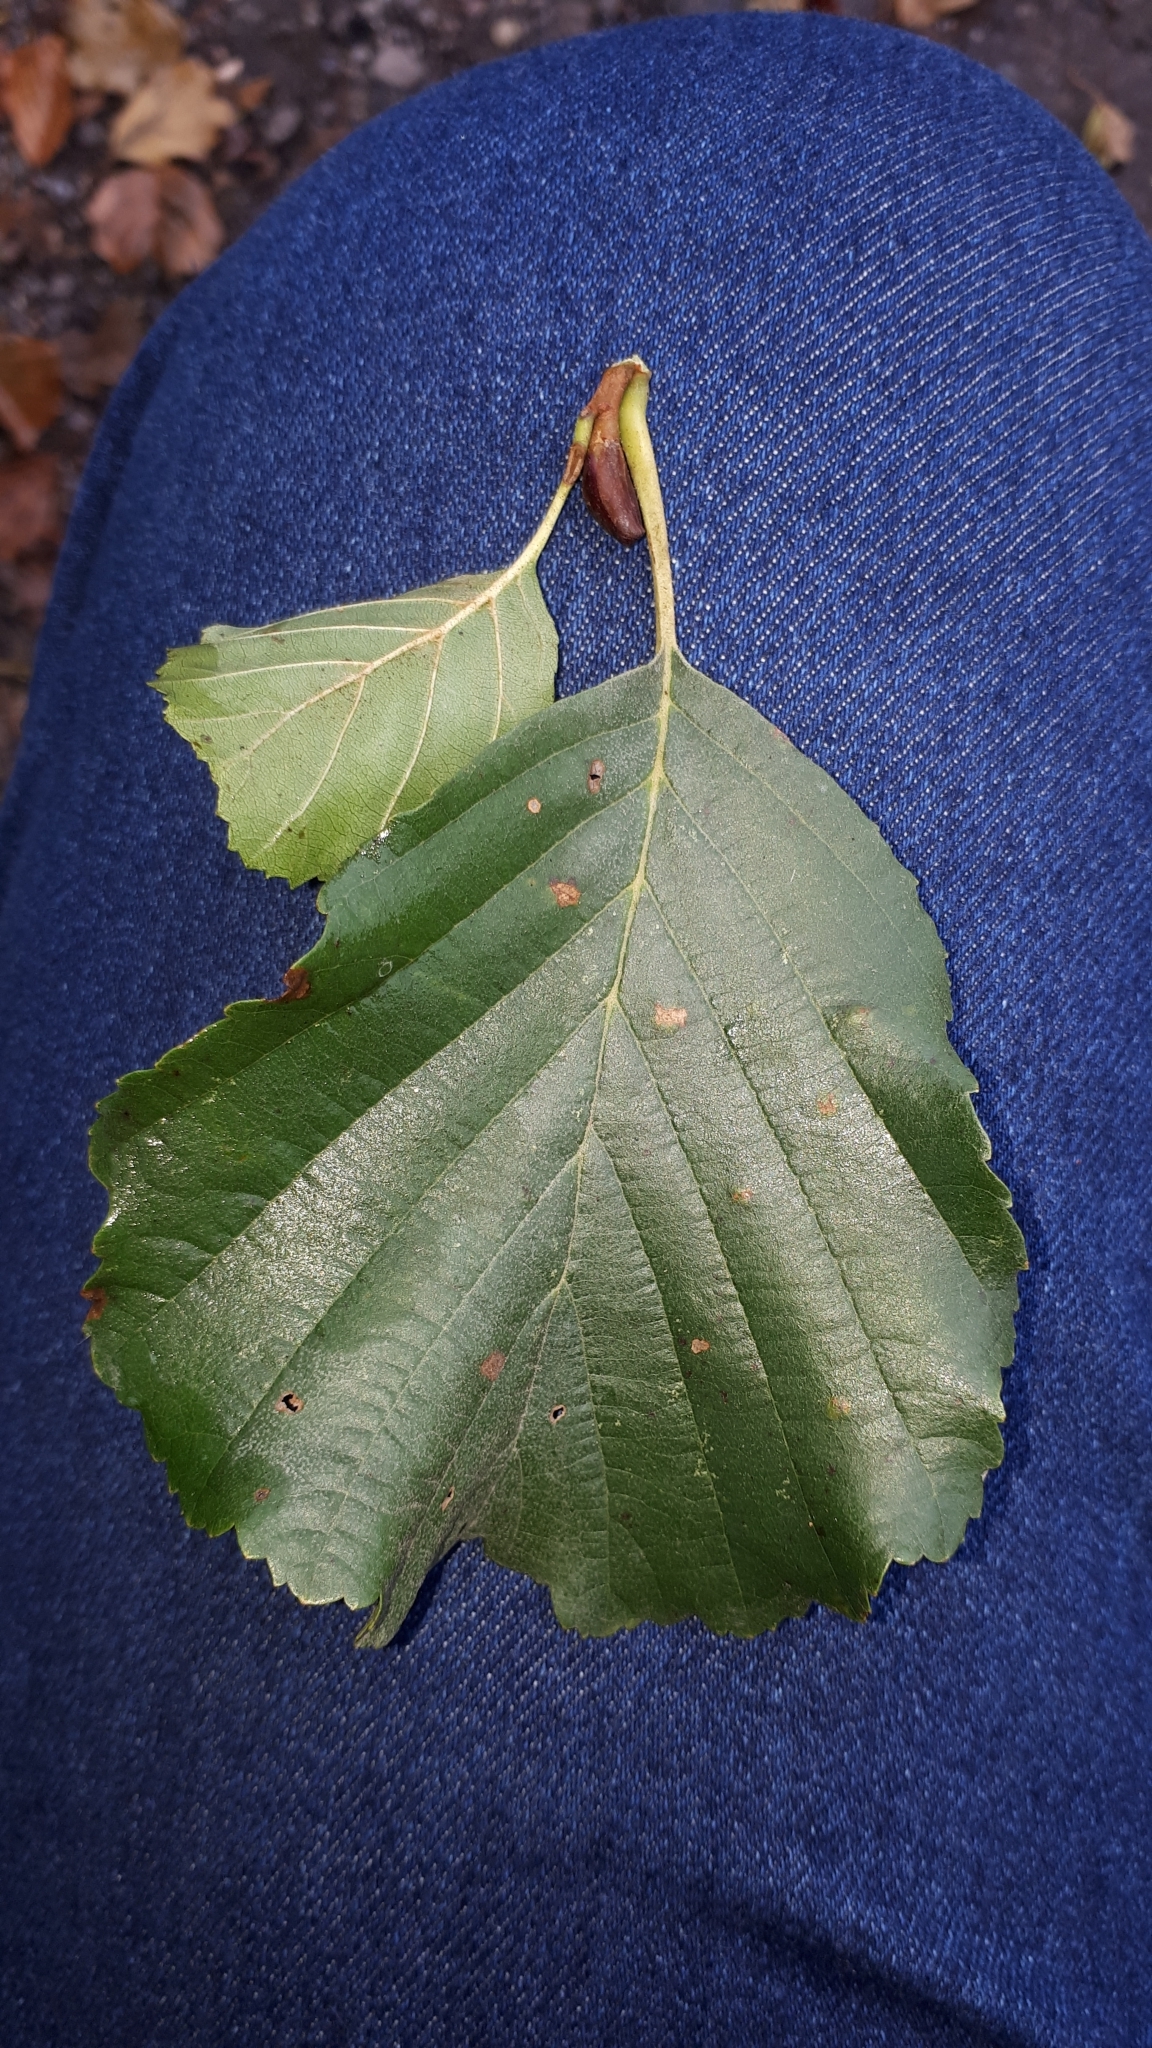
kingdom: Plantae
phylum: Tracheophyta
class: Magnoliopsida
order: Fagales
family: Betulaceae
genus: Alnus
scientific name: Alnus glutinosa
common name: Black alder
